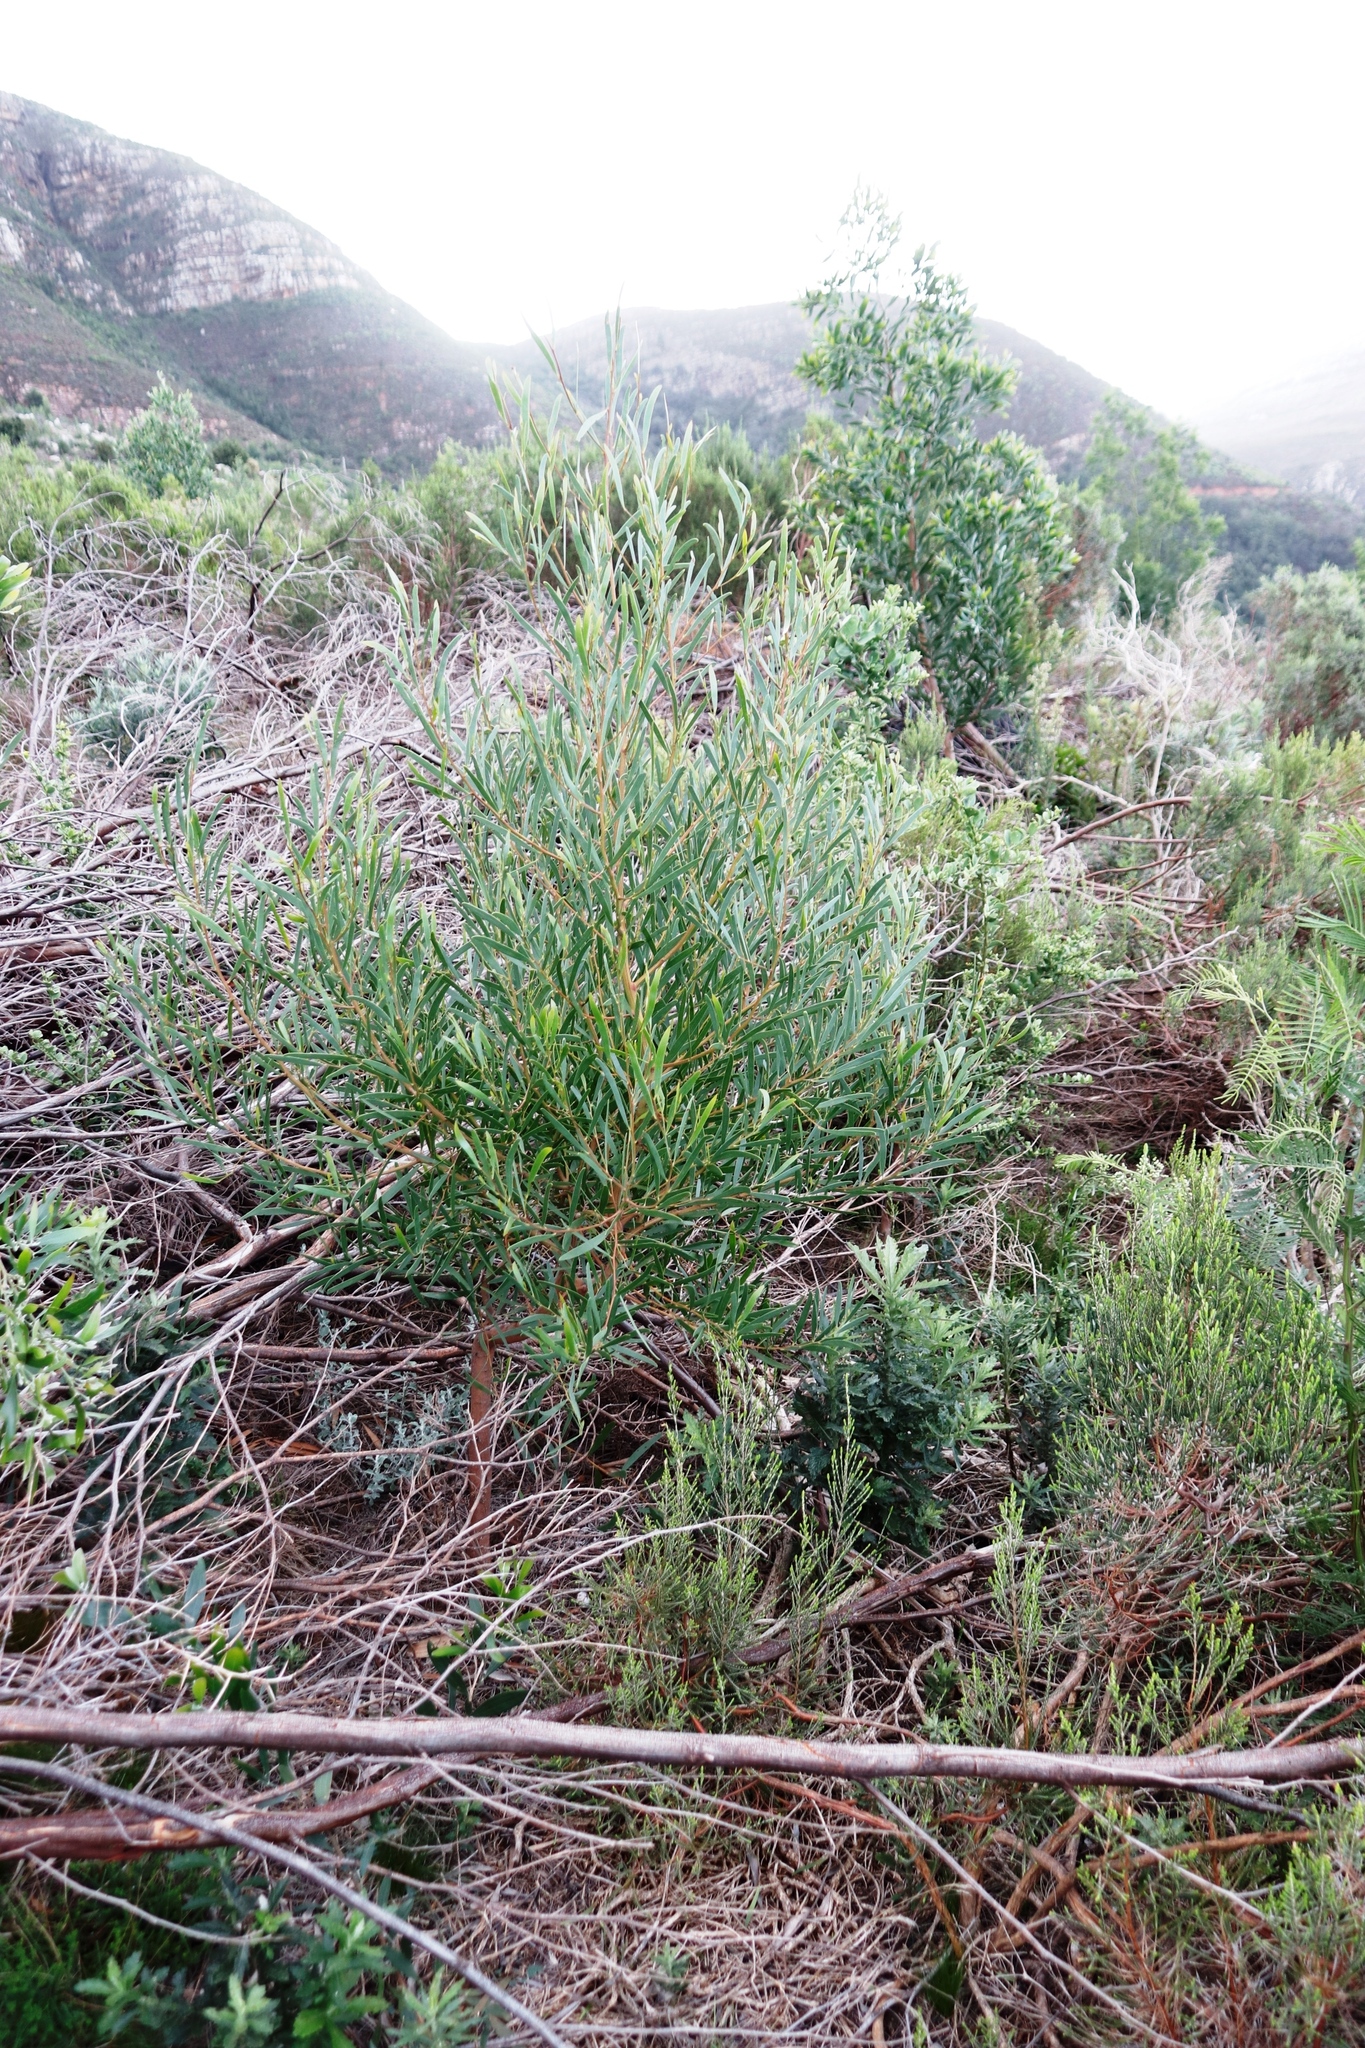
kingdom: Plantae
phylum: Tracheophyta
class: Magnoliopsida
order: Fabales
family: Fabaceae
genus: Acacia
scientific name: Acacia cyclops
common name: Coastal wattle
